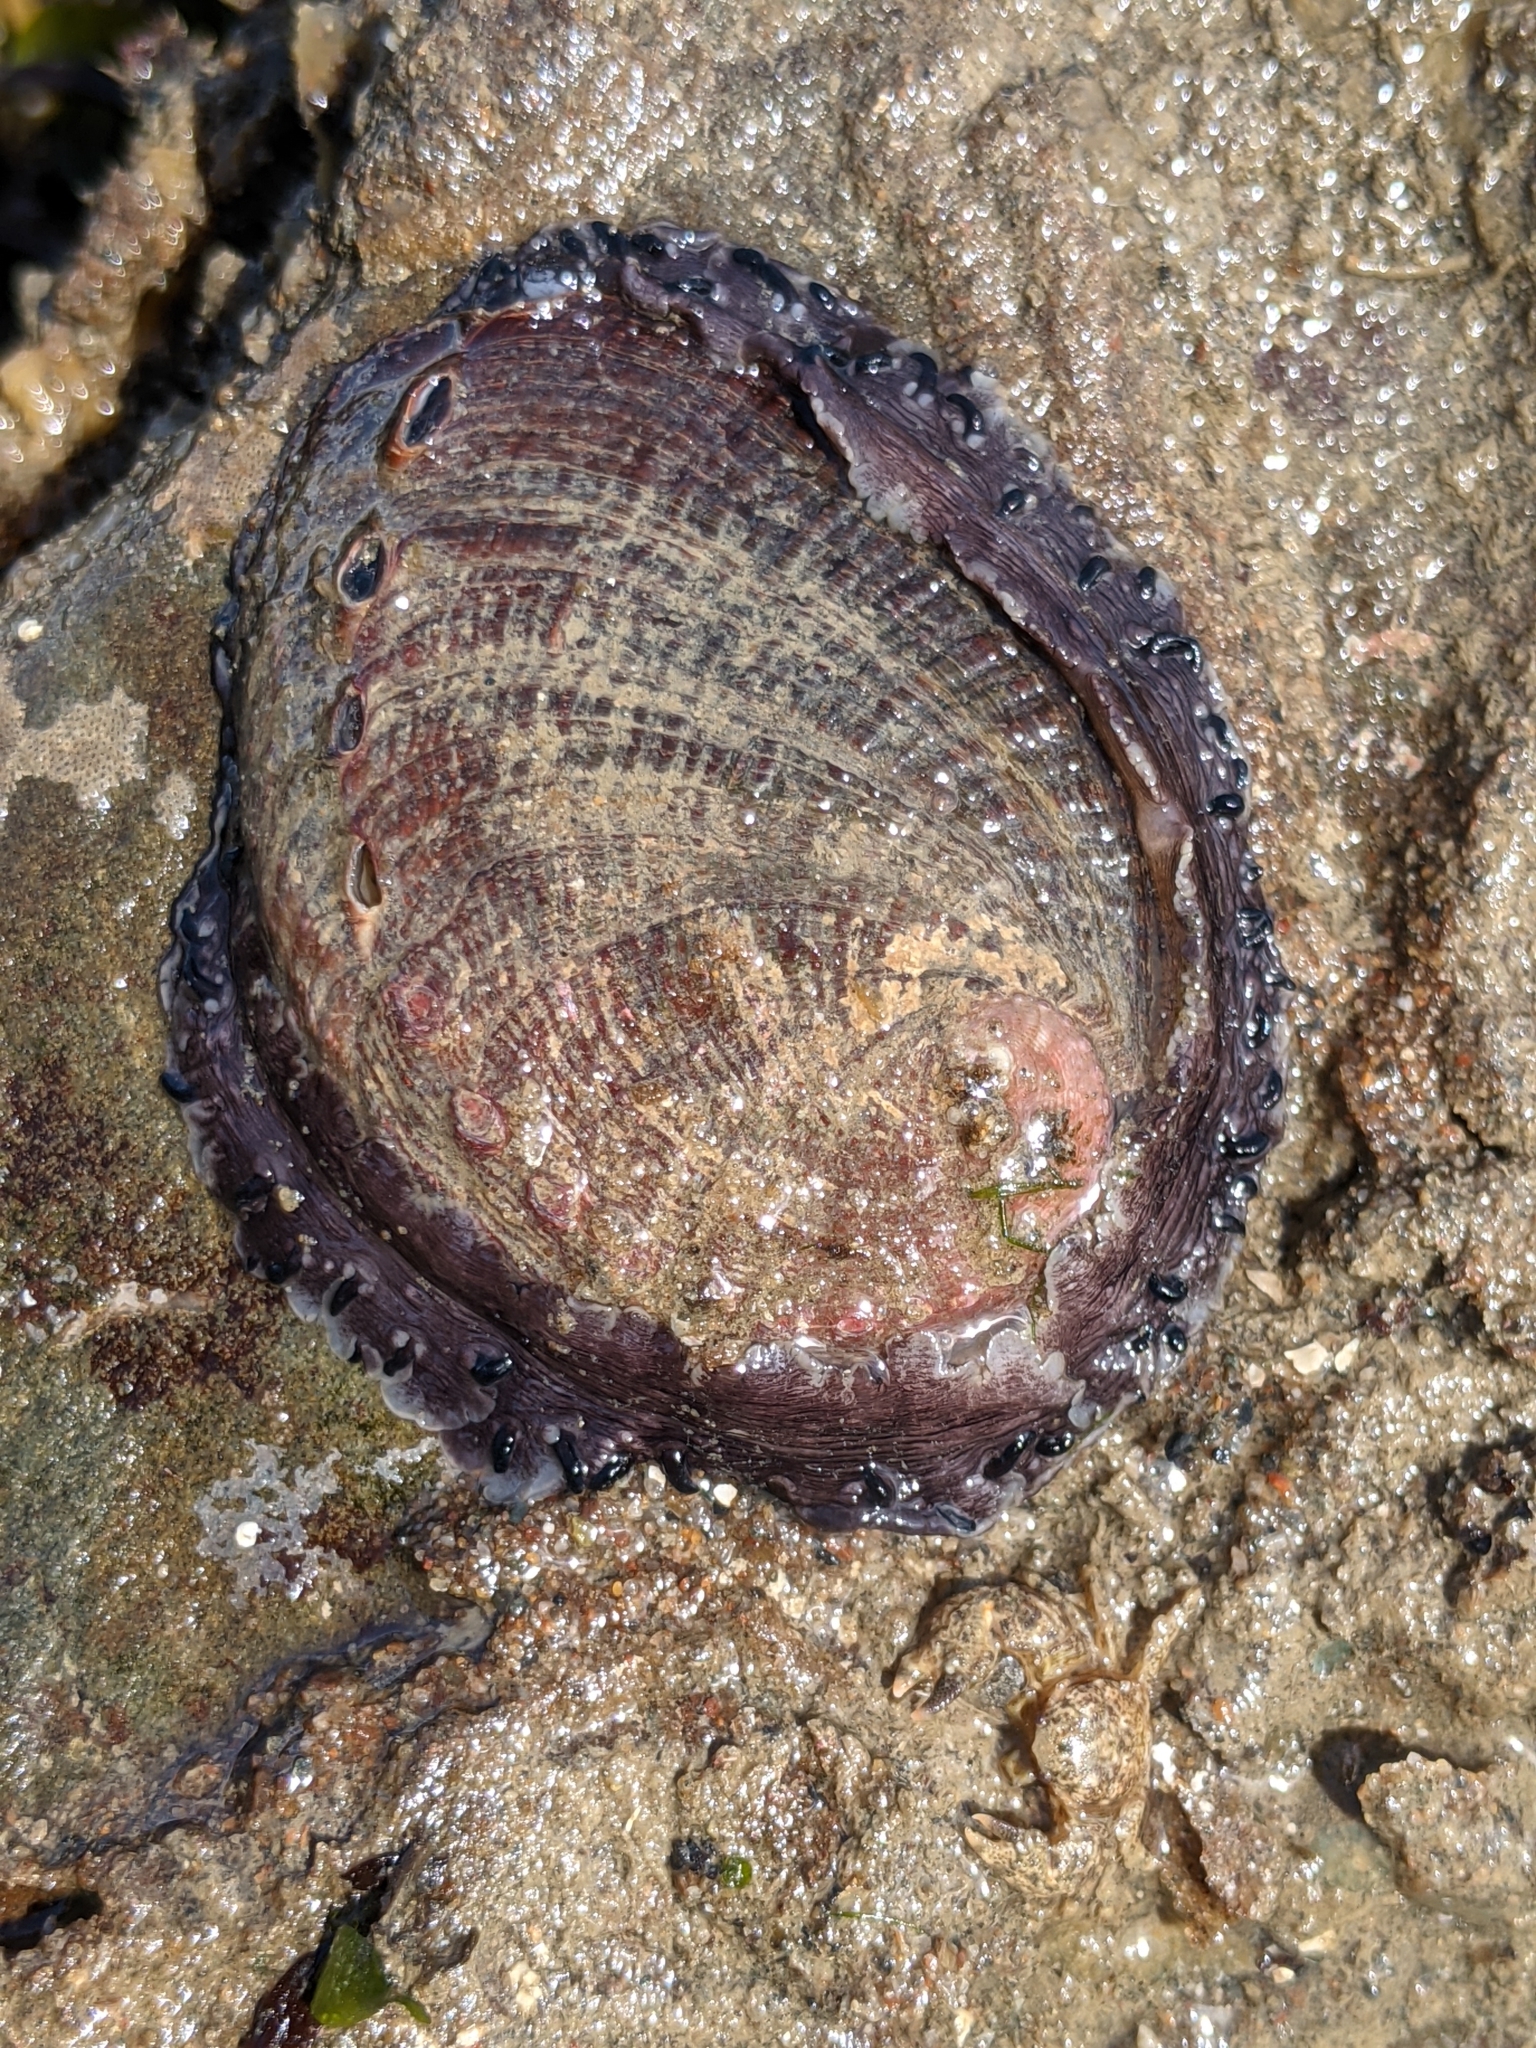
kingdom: Animalia
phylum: Mollusca
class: Gastropoda
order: Lepetellida
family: Haliotidae
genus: Haliotis
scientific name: Haliotis rufescens
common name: Red abalone
